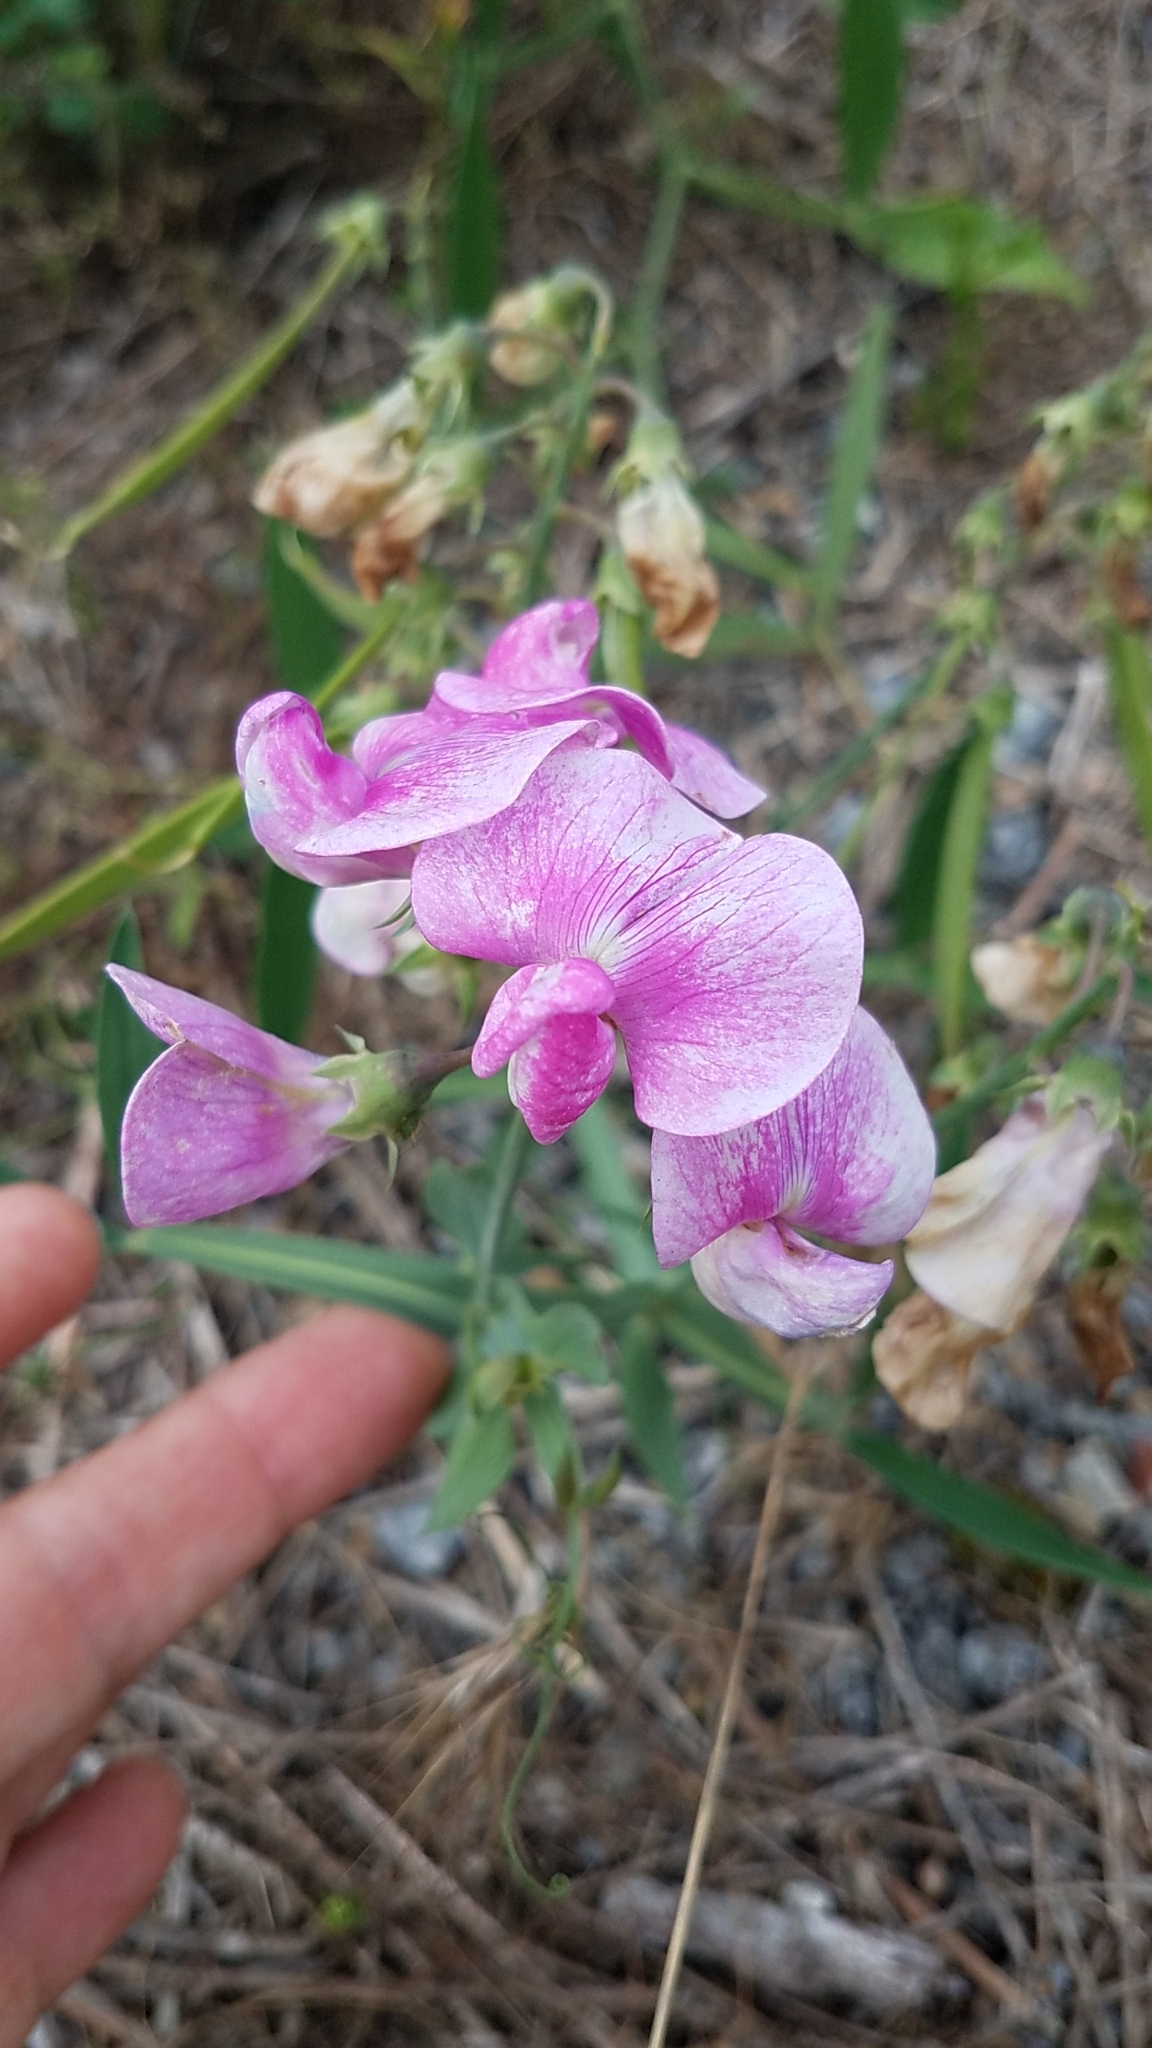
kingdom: Plantae
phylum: Tracheophyta
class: Magnoliopsida
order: Fabales
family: Fabaceae
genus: Lathyrus
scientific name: Lathyrus latifolius
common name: Perennial pea
